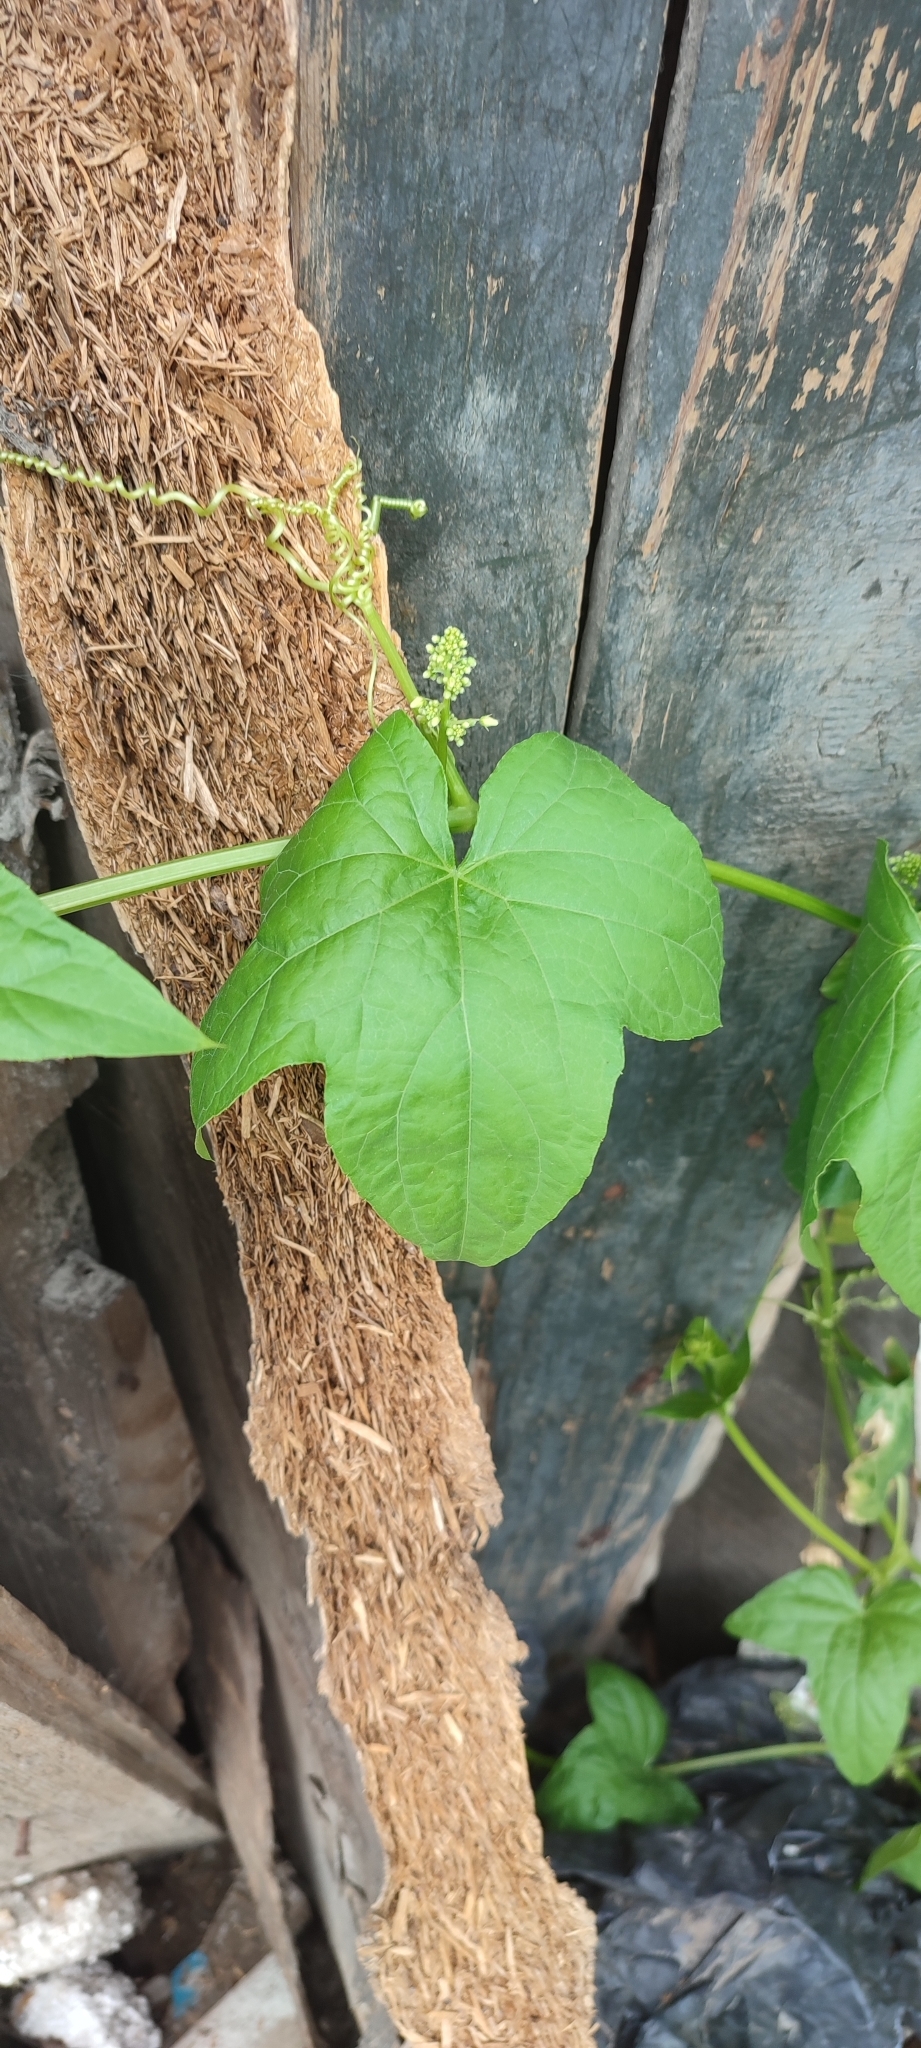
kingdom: Plantae
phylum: Tracheophyta
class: Magnoliopsida
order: Cucurbitales
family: Cucurbitaceae
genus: Echinocystis
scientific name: Echinocystis lobata
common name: Wild cucumber
